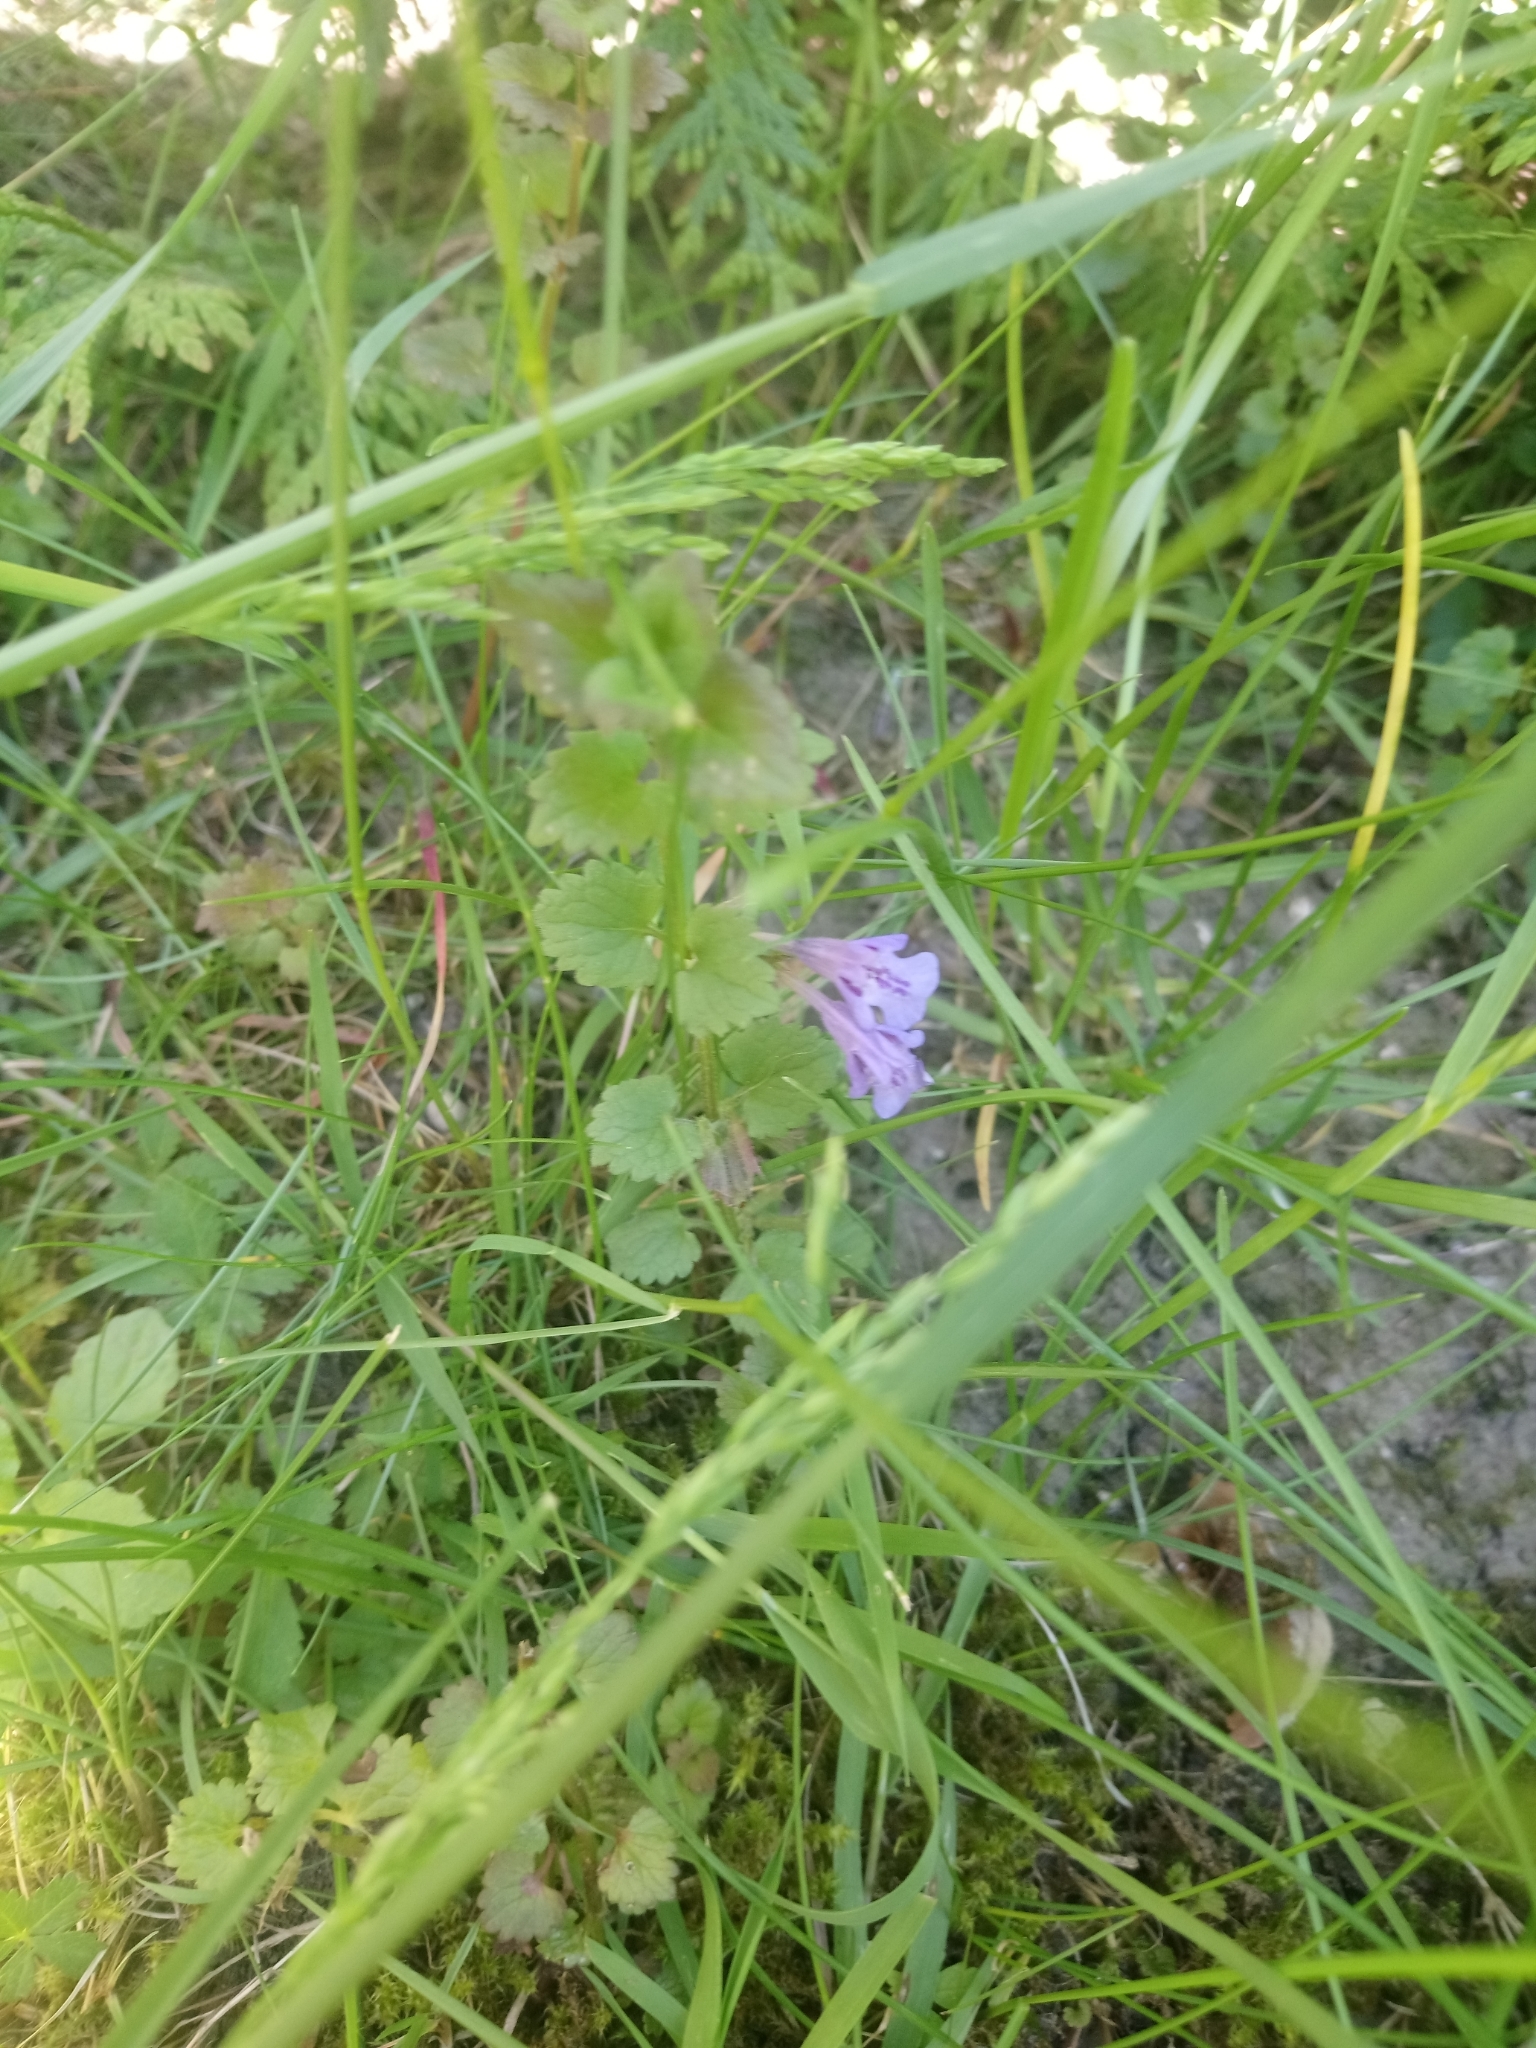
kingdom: Plantae
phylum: Tracheophyta
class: Magnoliopsida
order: Lamiales
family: Lamiaceae
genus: Glechoma
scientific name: Glechoma hederacea
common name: Ground ivy
